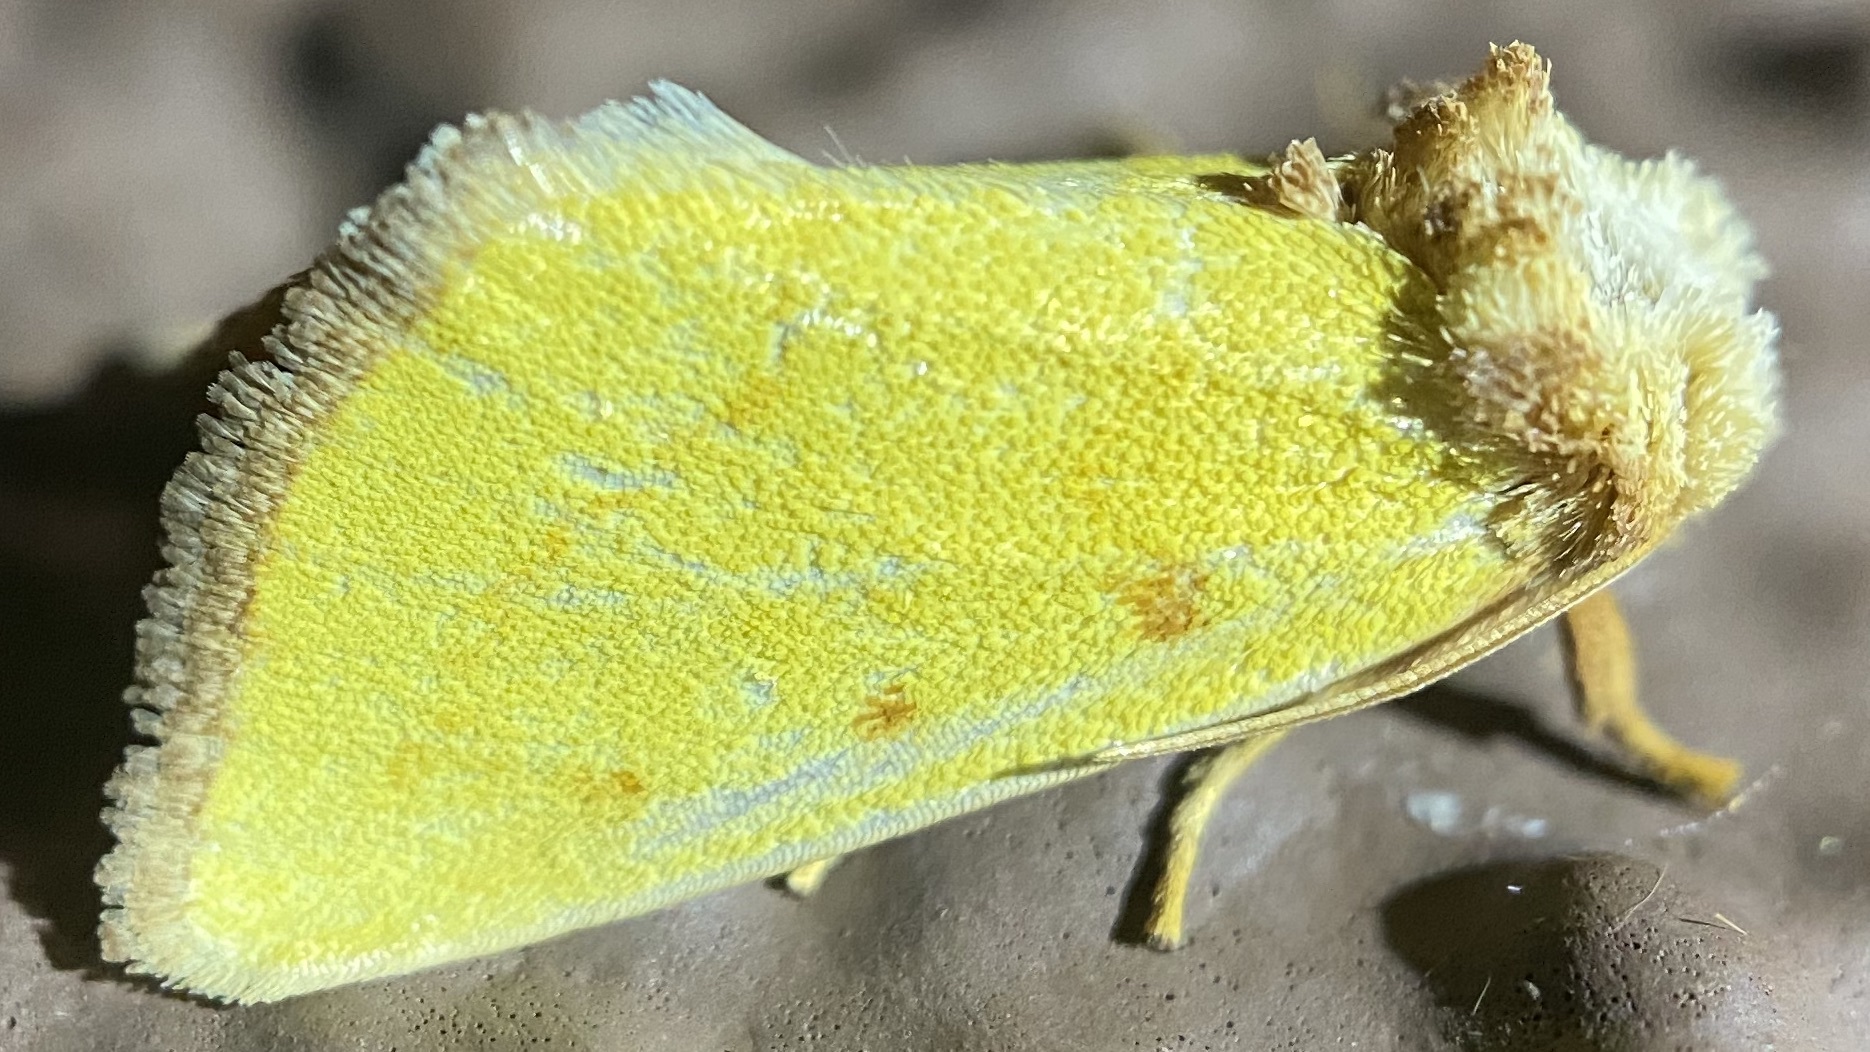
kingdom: Animalia
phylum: Arthropoda
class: Insecta
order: Lepidoptera
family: Noctuidae
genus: Nocloa
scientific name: Nocloa aliaga
